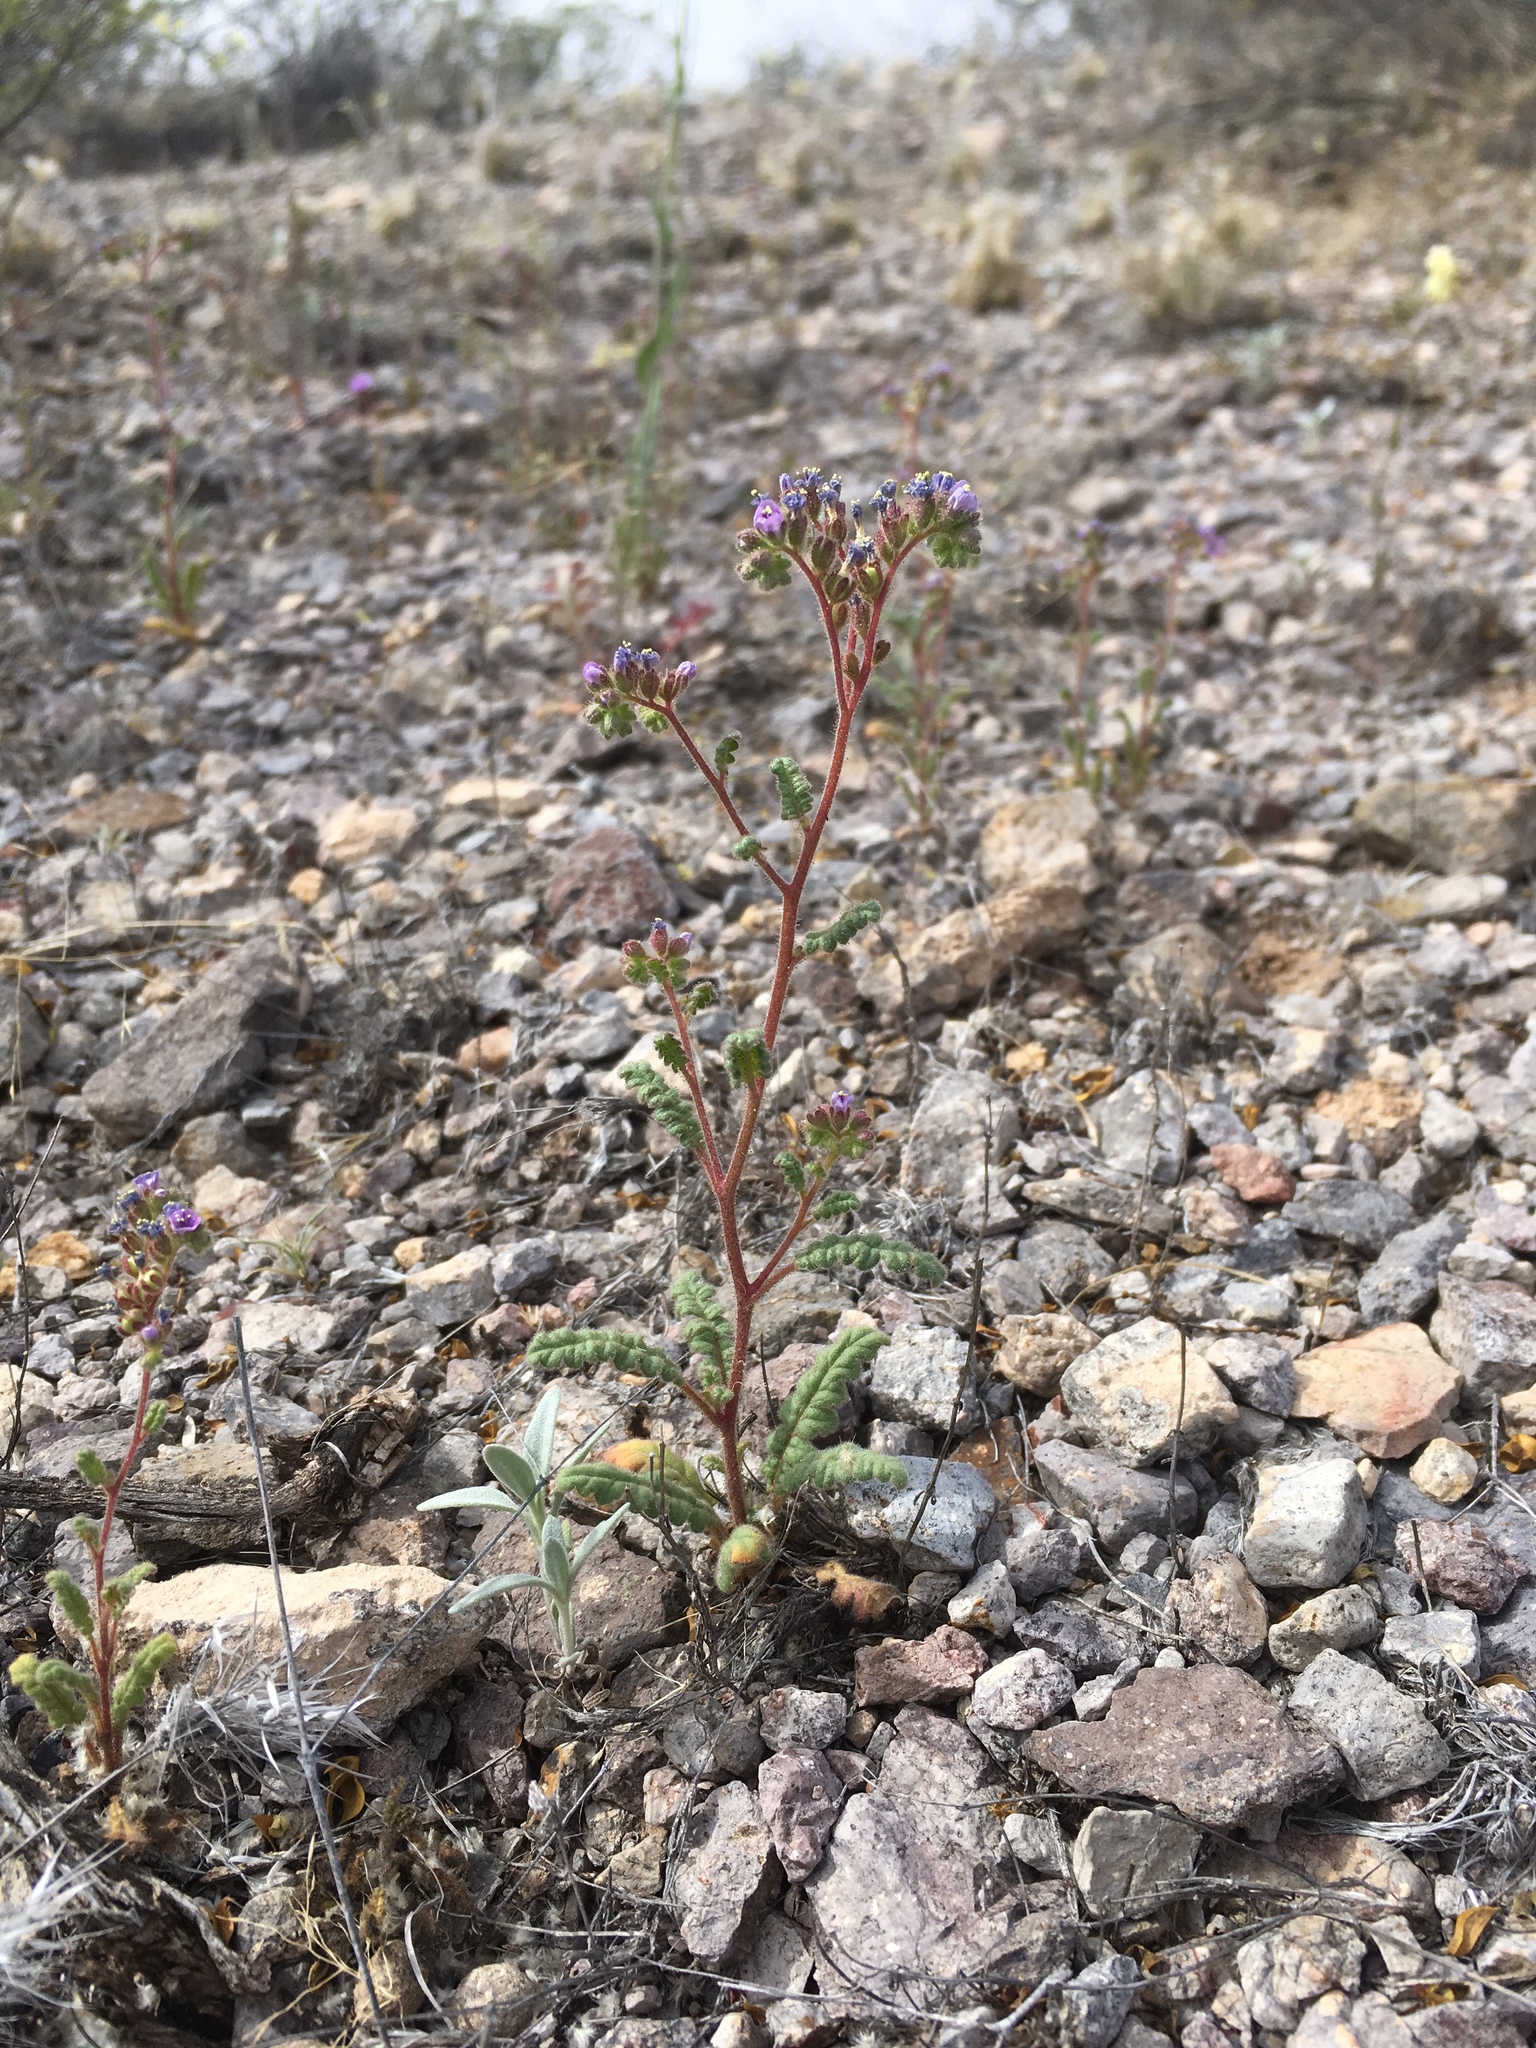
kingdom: Plantae
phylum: Tracheophyta
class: Magnoliopsida
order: Boraginales
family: Hydrophyllaceae
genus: Phacelia
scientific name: Phacelia coerulea
